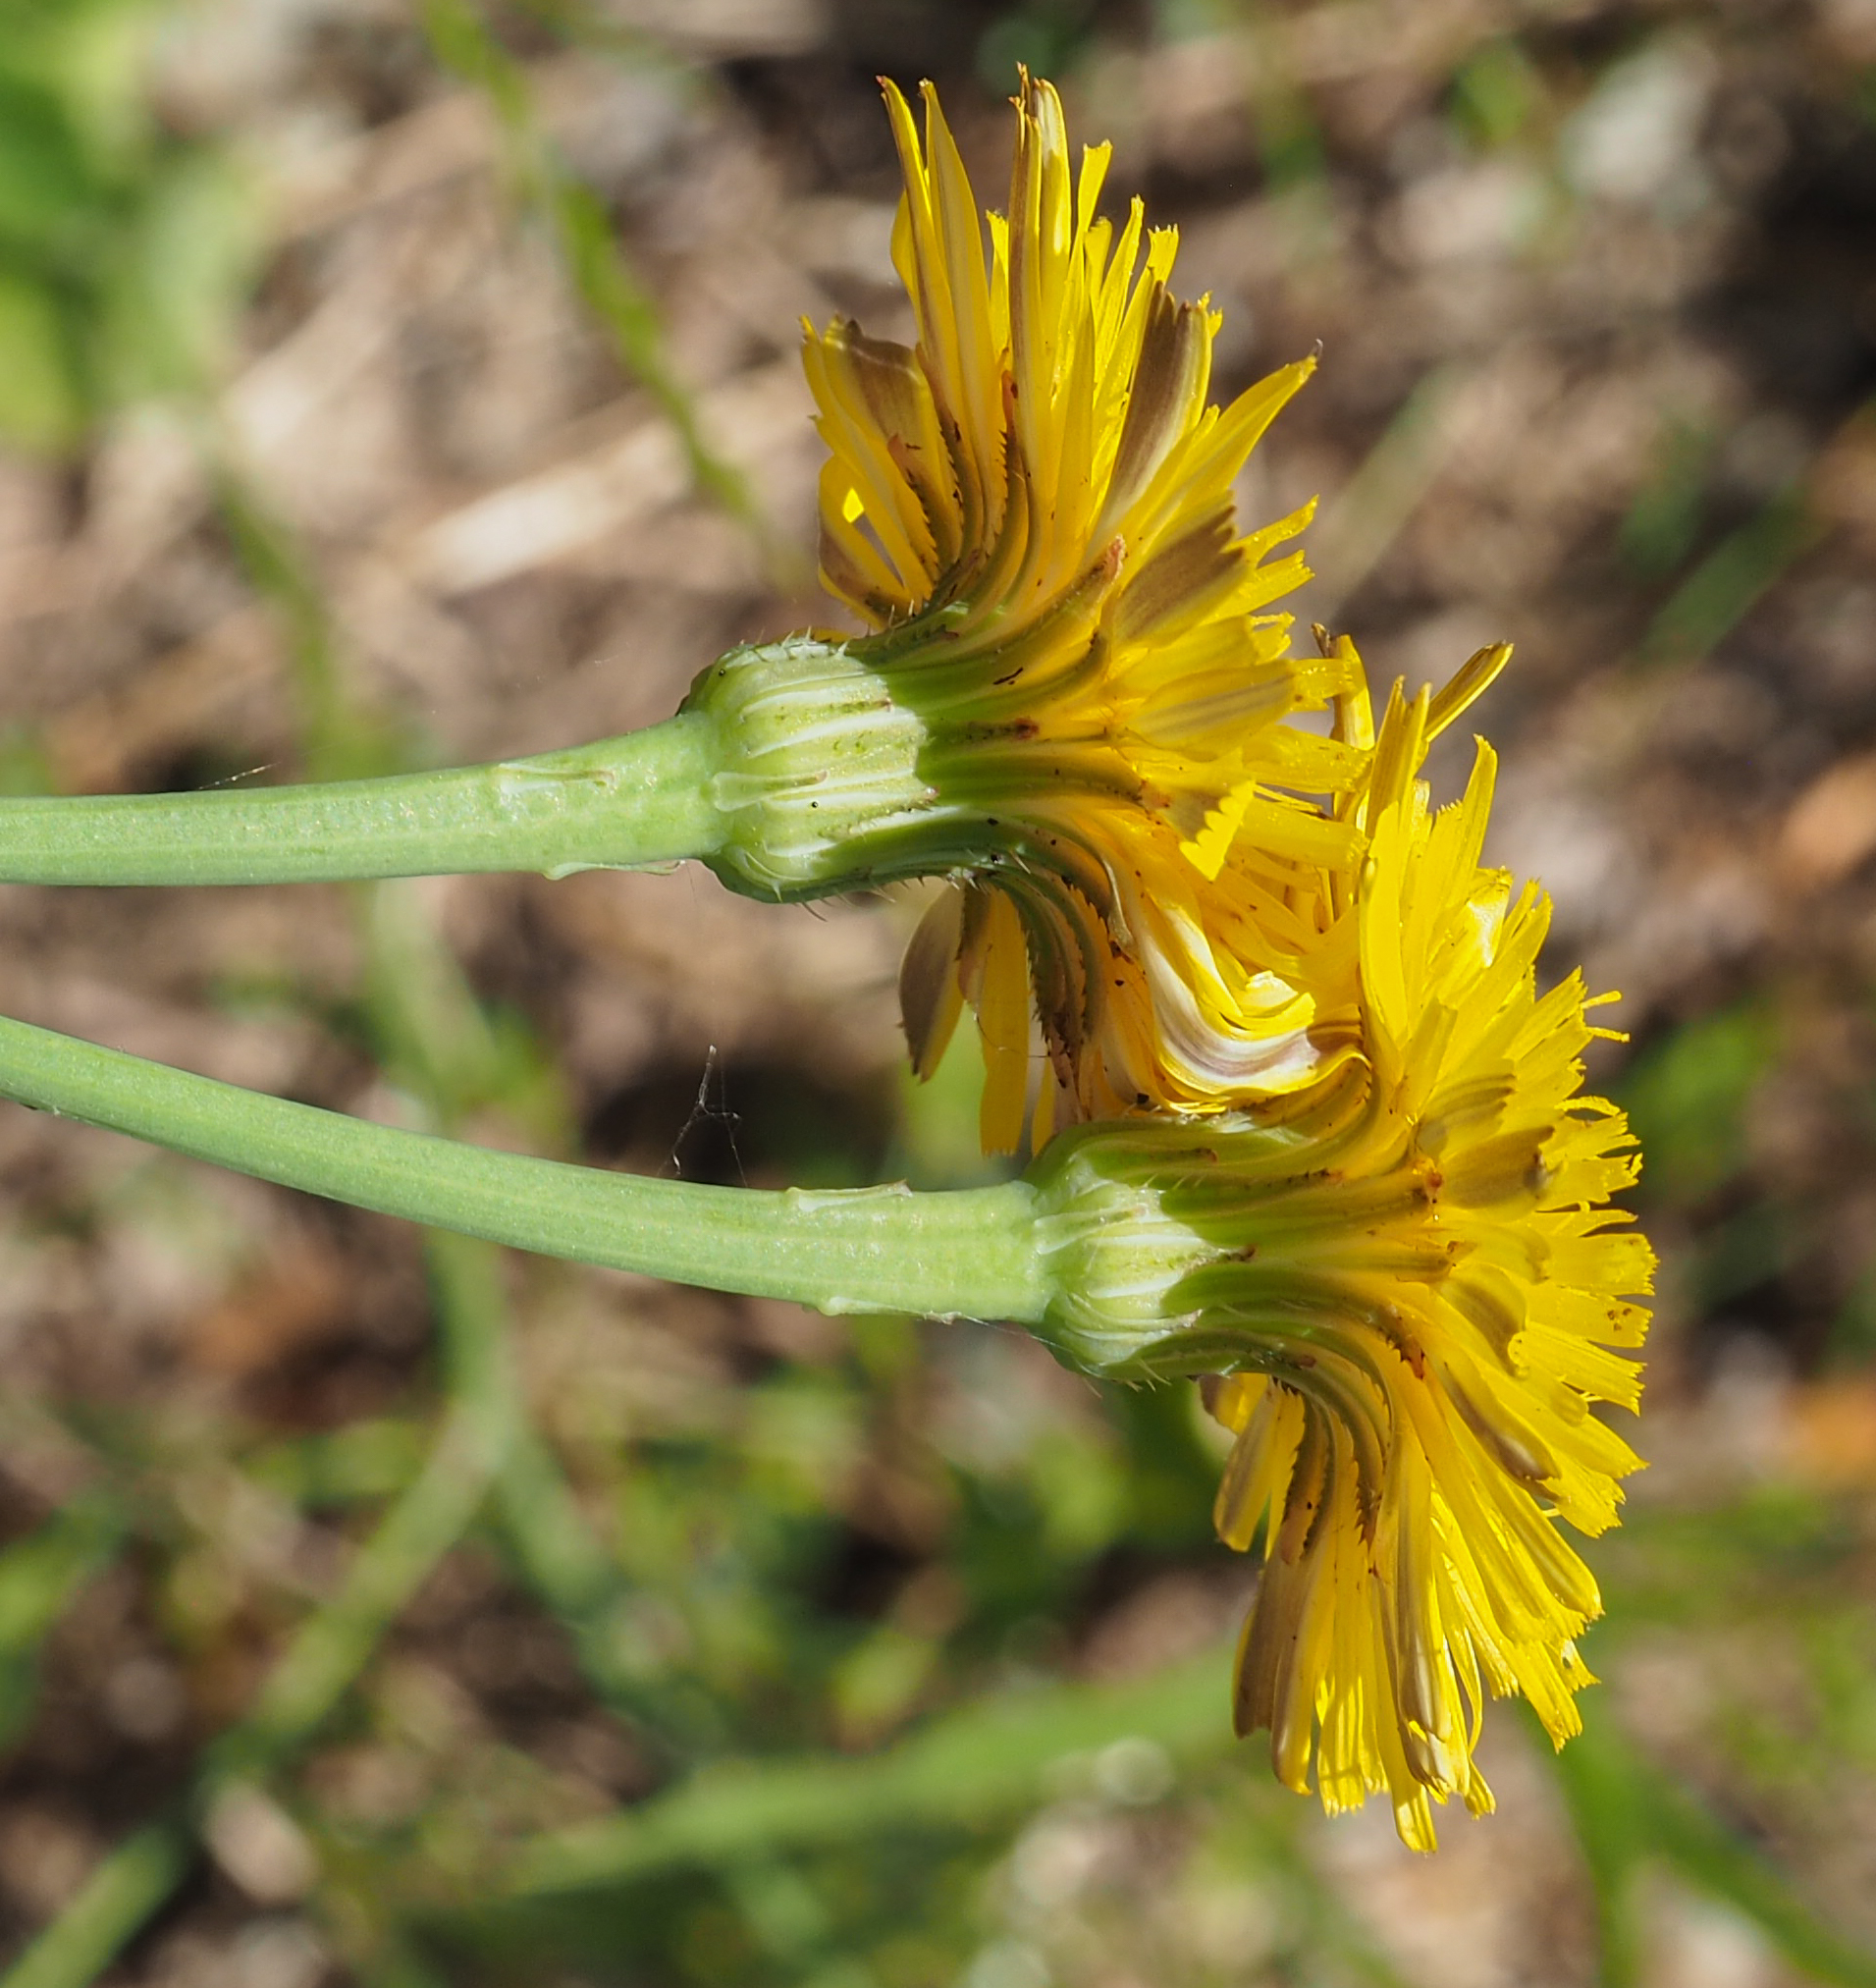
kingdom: Plantae
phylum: Tracheophyta
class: Magnoliopsida
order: Asterales
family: Asteraceae
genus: Hypochaeris
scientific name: Hypochaeris radicata
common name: Flatweed
